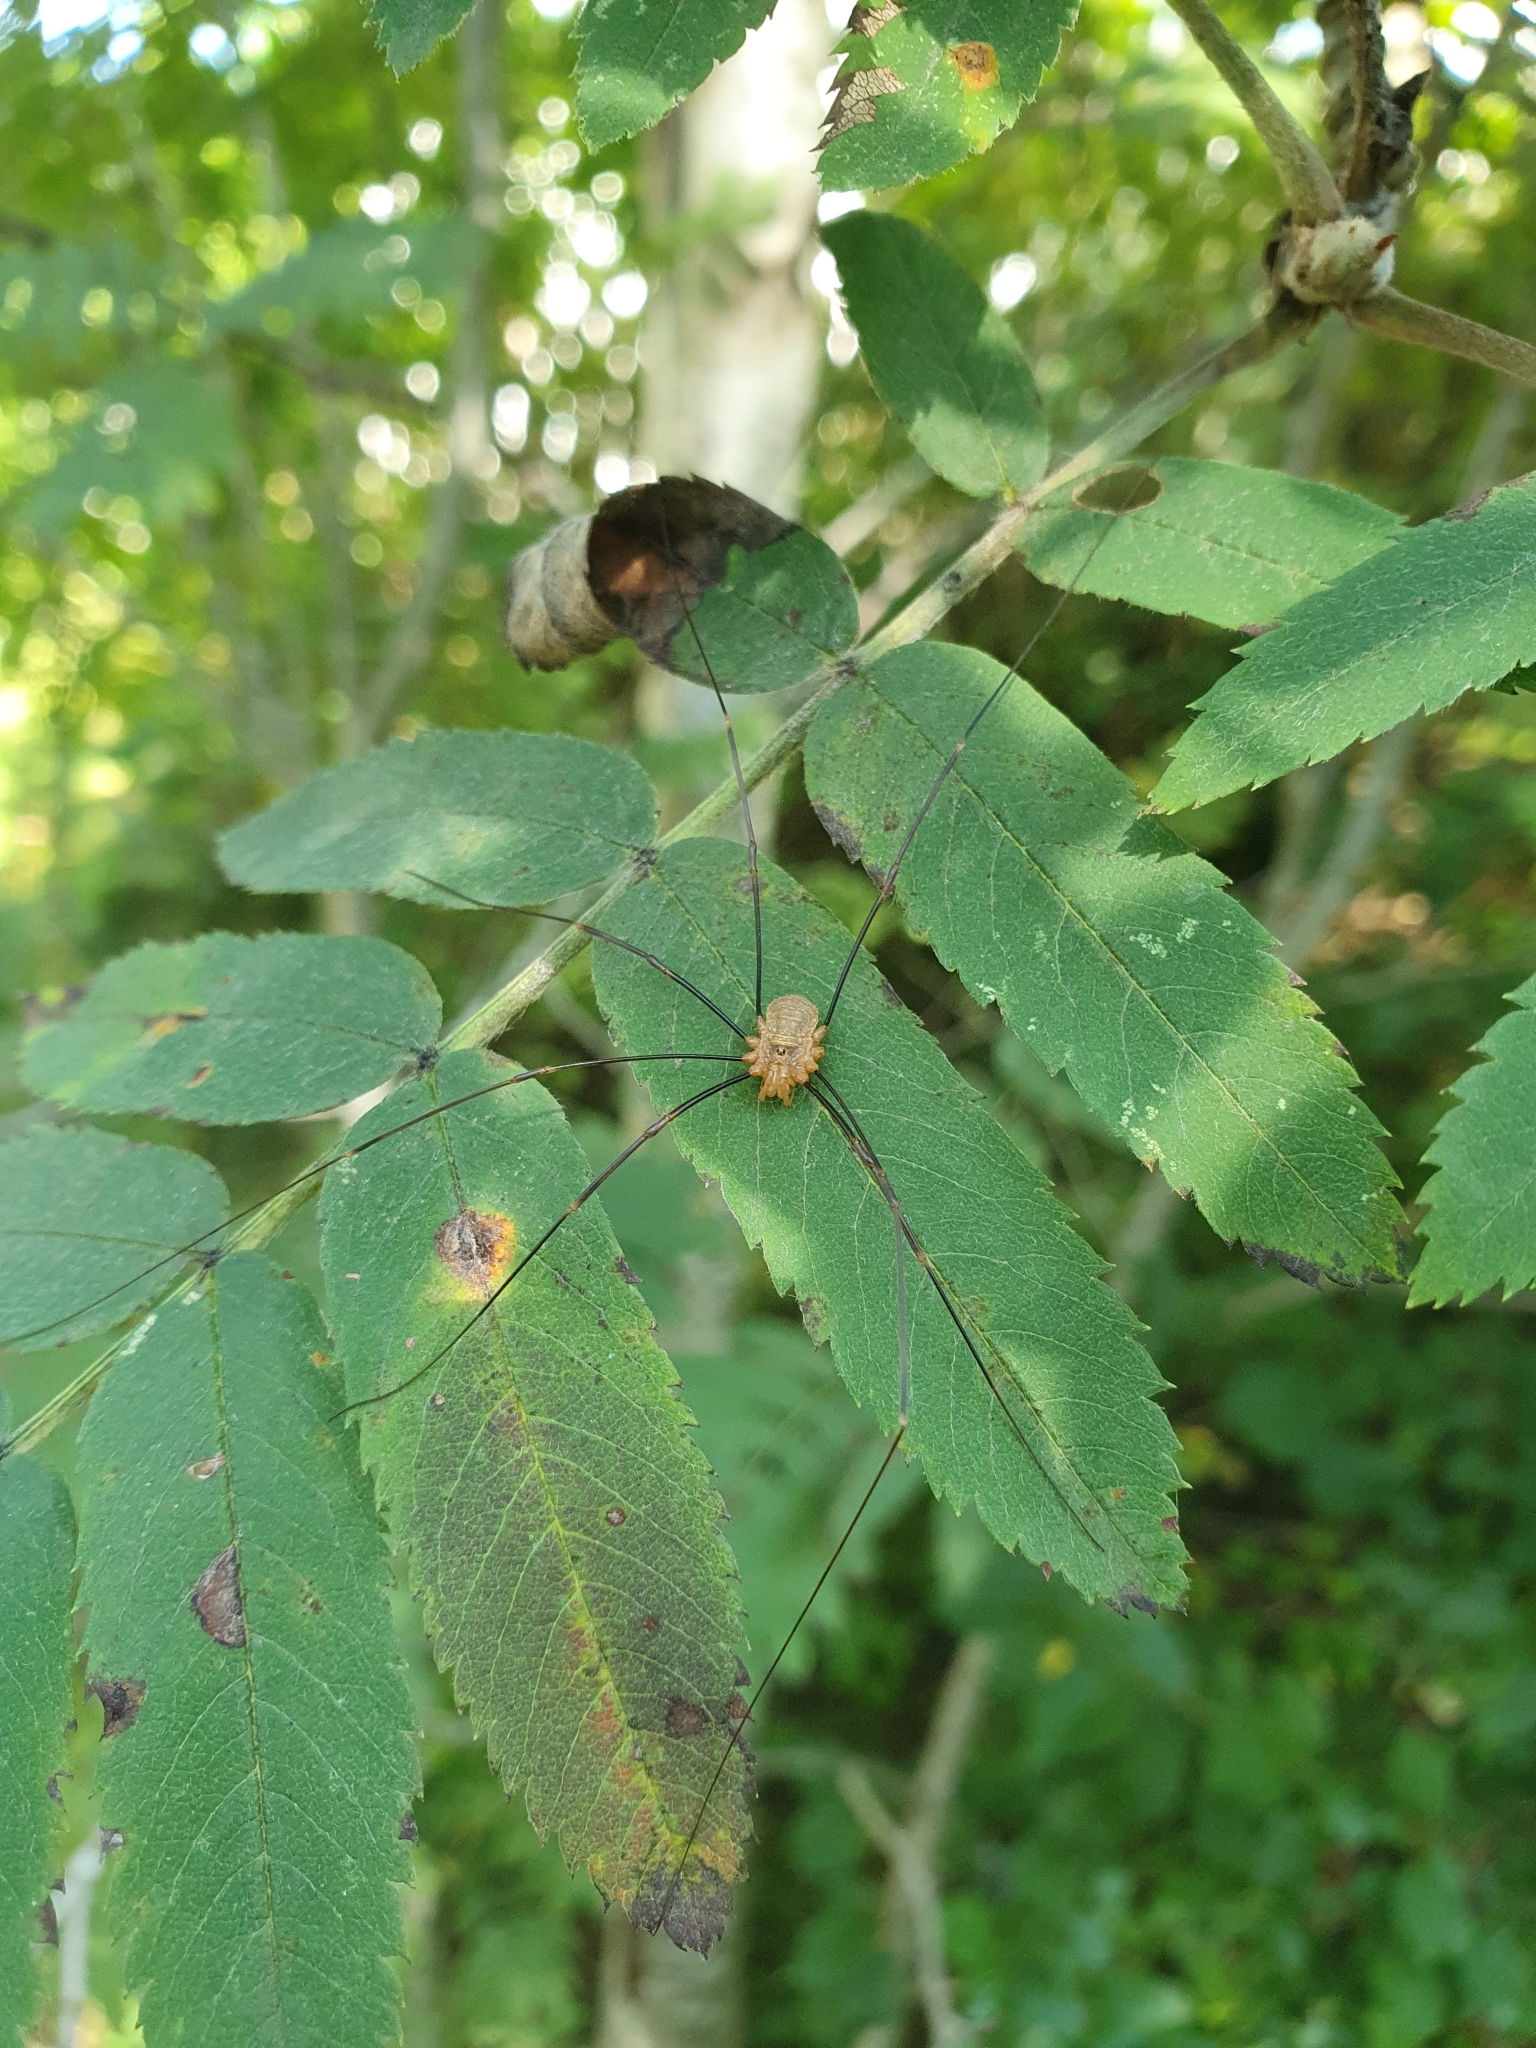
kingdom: Animalia
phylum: Arthropoda
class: Arachnida
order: Opiliones
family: Phalangiidae
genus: Opilio
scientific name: Opilio canestrinii
